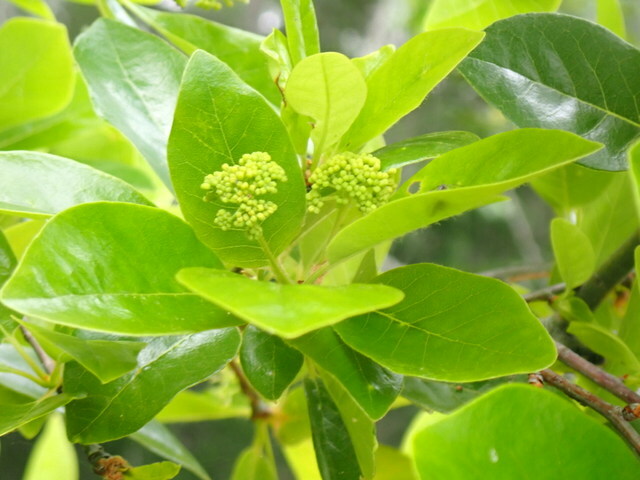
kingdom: Plantae
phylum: Tracheophyta
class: Magnoliopsida
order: Cornales
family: Nyssaceae
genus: Nyssa
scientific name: Nyssa biflora
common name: Swamp blackgum
